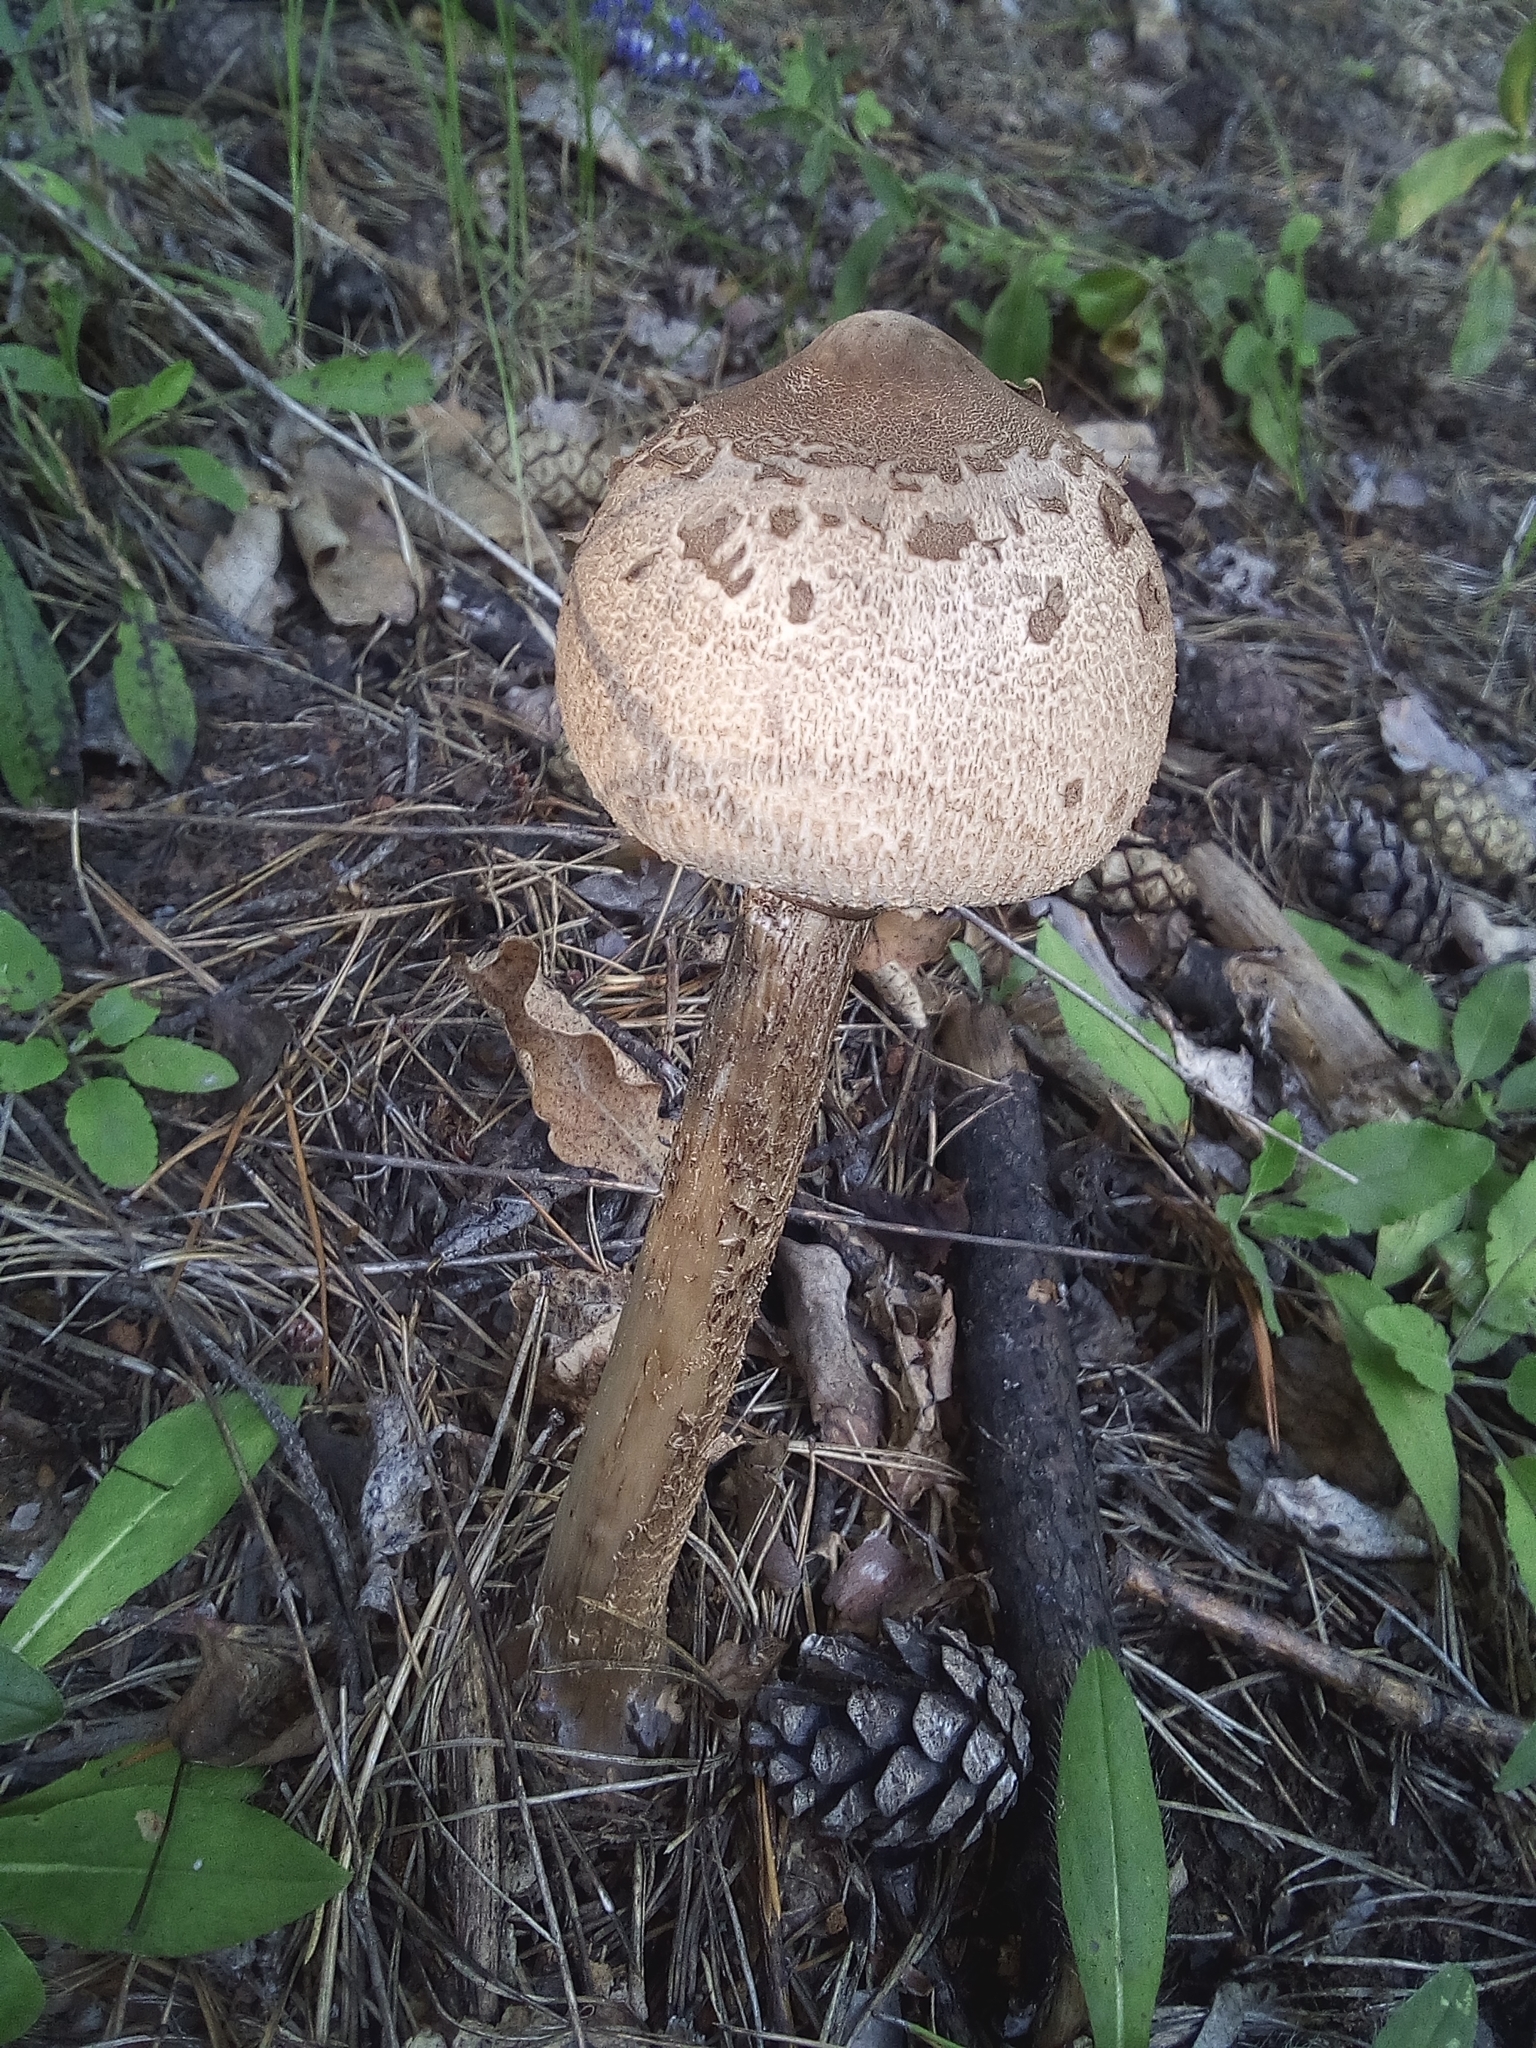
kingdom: Fungi
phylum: Basidiomycota
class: Agaricomycetes
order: Agaricales
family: Agaricaceae
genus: Macrolepiota
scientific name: Macrolepiota procera
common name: Parasol
